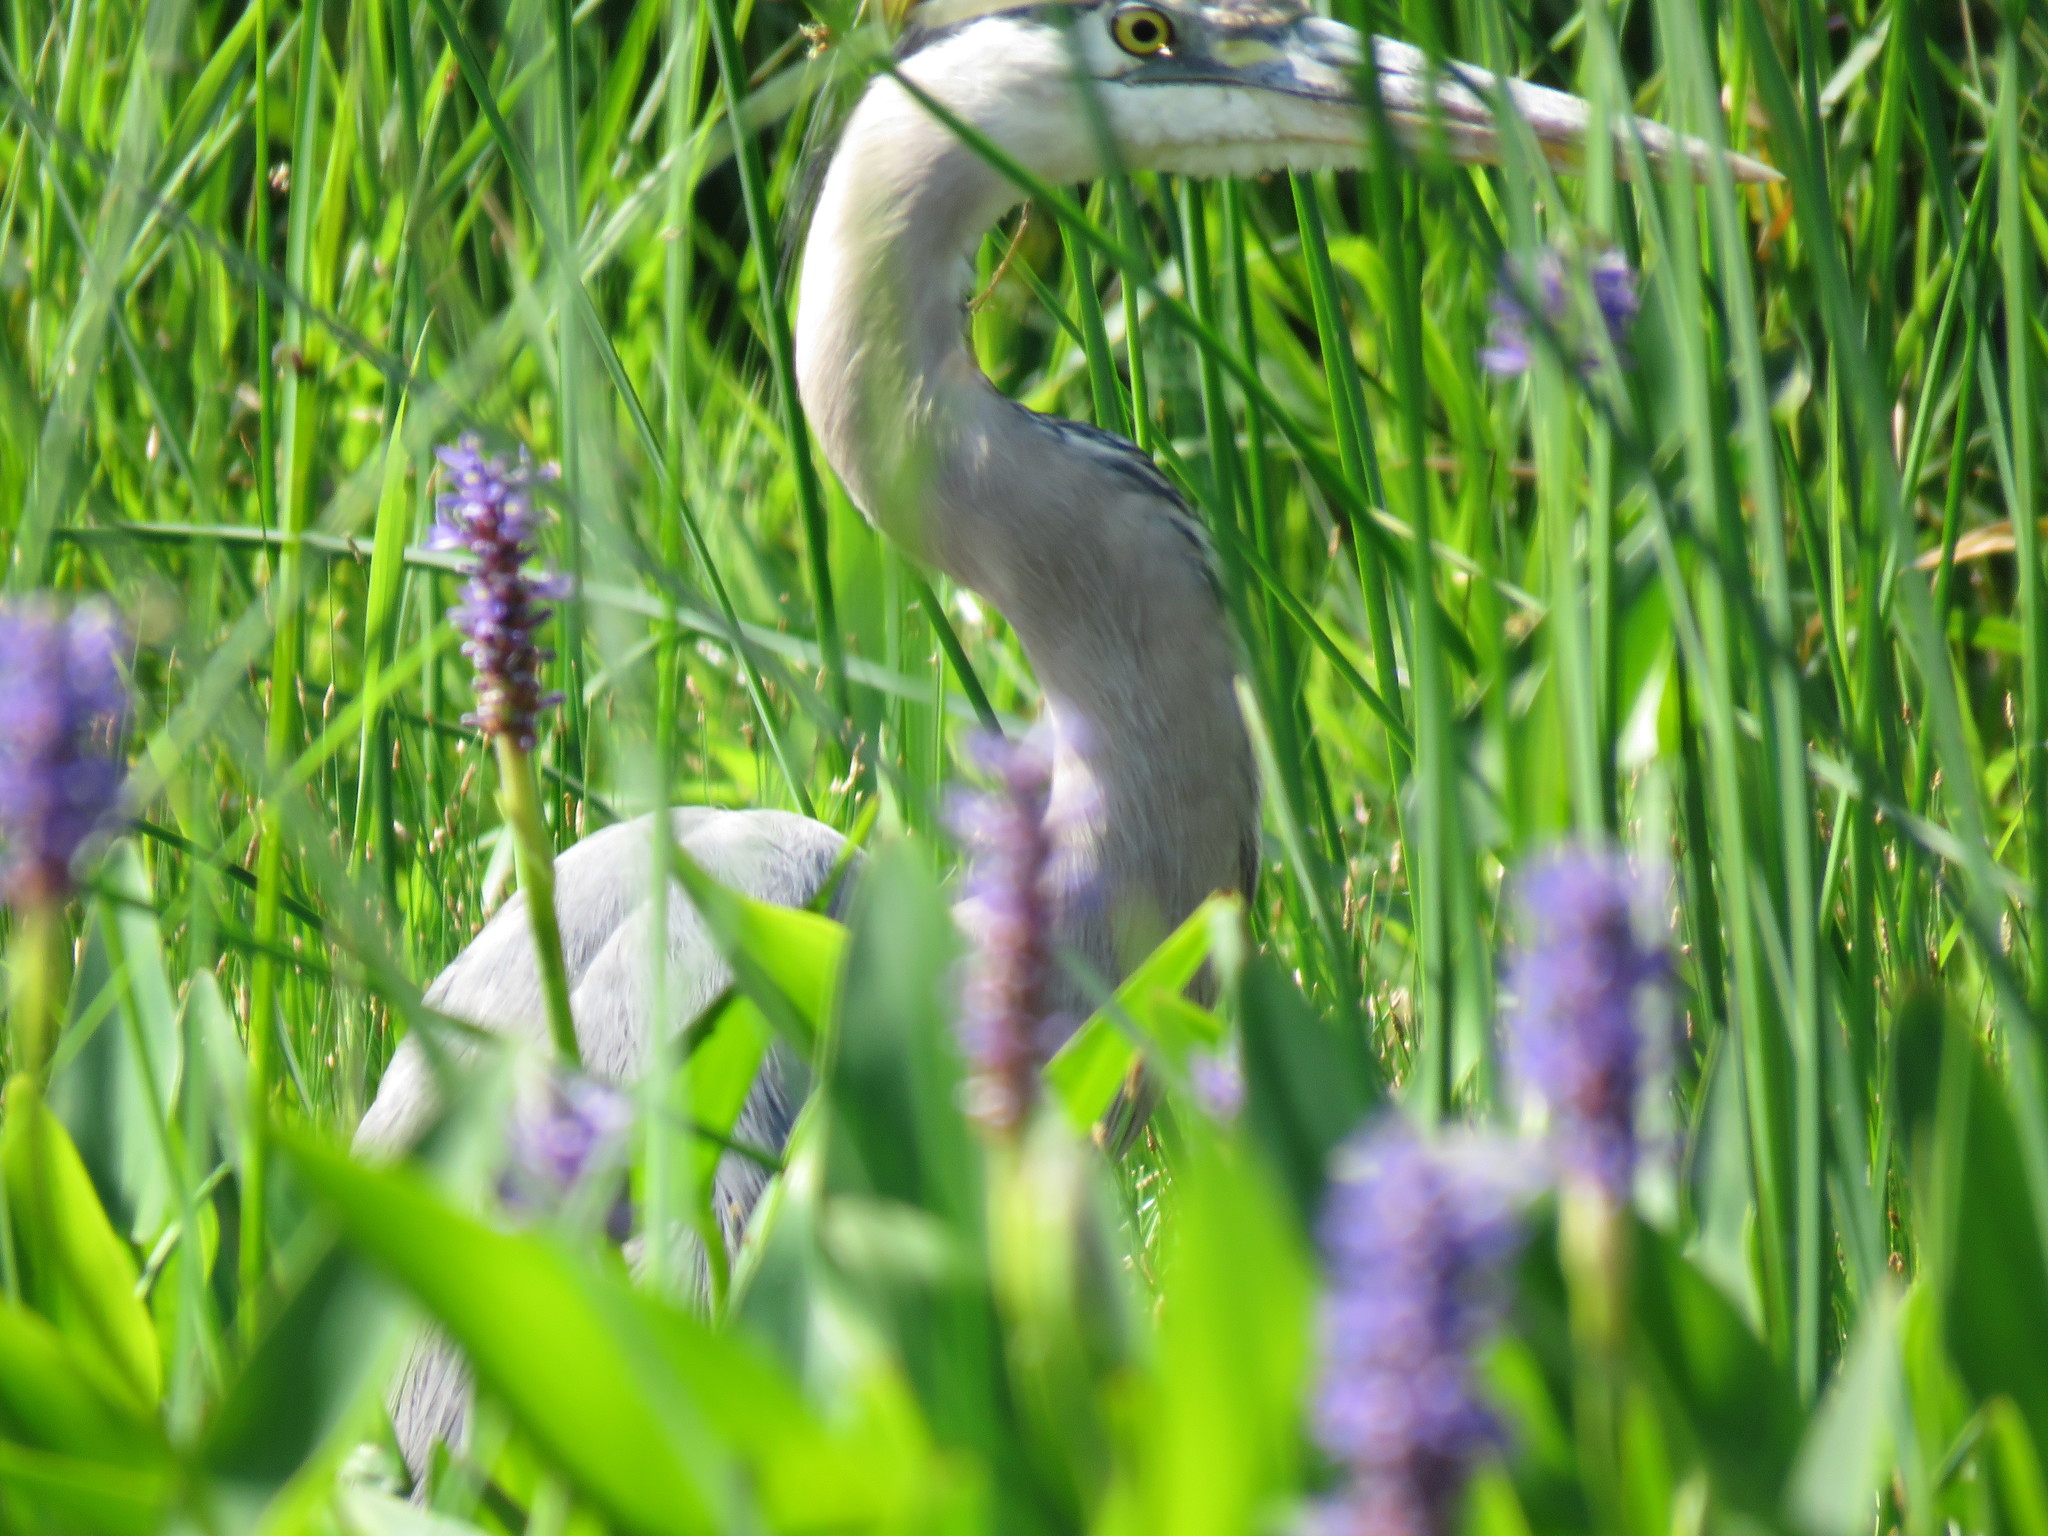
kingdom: Animalia
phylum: Chordata
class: Aves
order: Pelecaniformes
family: Ardeidae
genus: Ardea
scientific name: Ardea herodias
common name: Great blue heron
